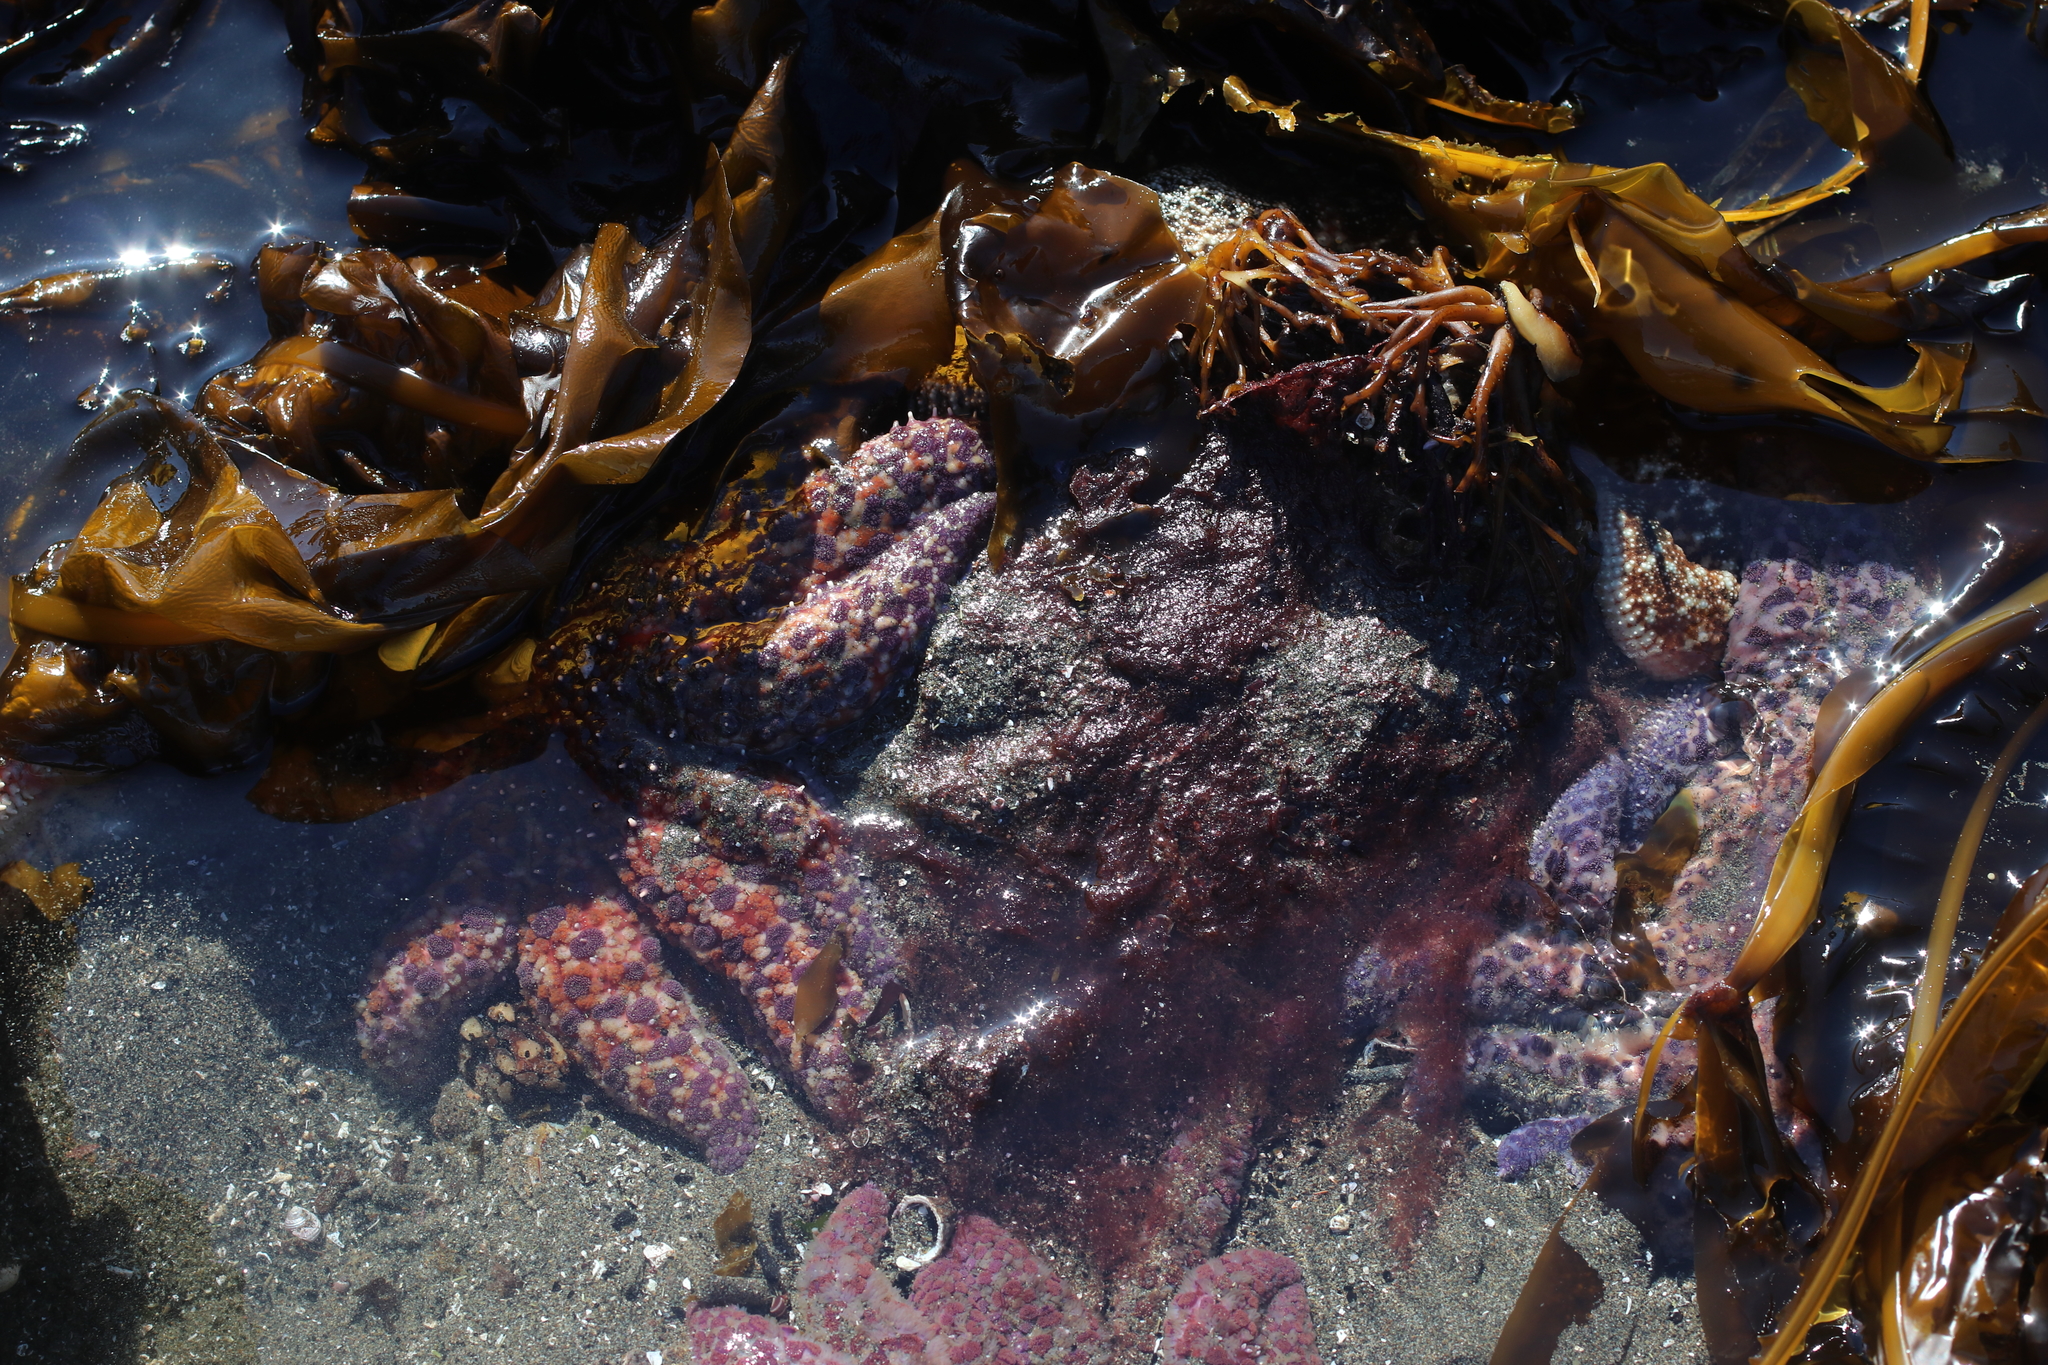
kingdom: Animalia
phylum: Echinodermata
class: Asteroidea
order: Forcipulatida
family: Asteriidae
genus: Pycnopodia
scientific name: Pycnopodia helianthoides
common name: Rag mop
